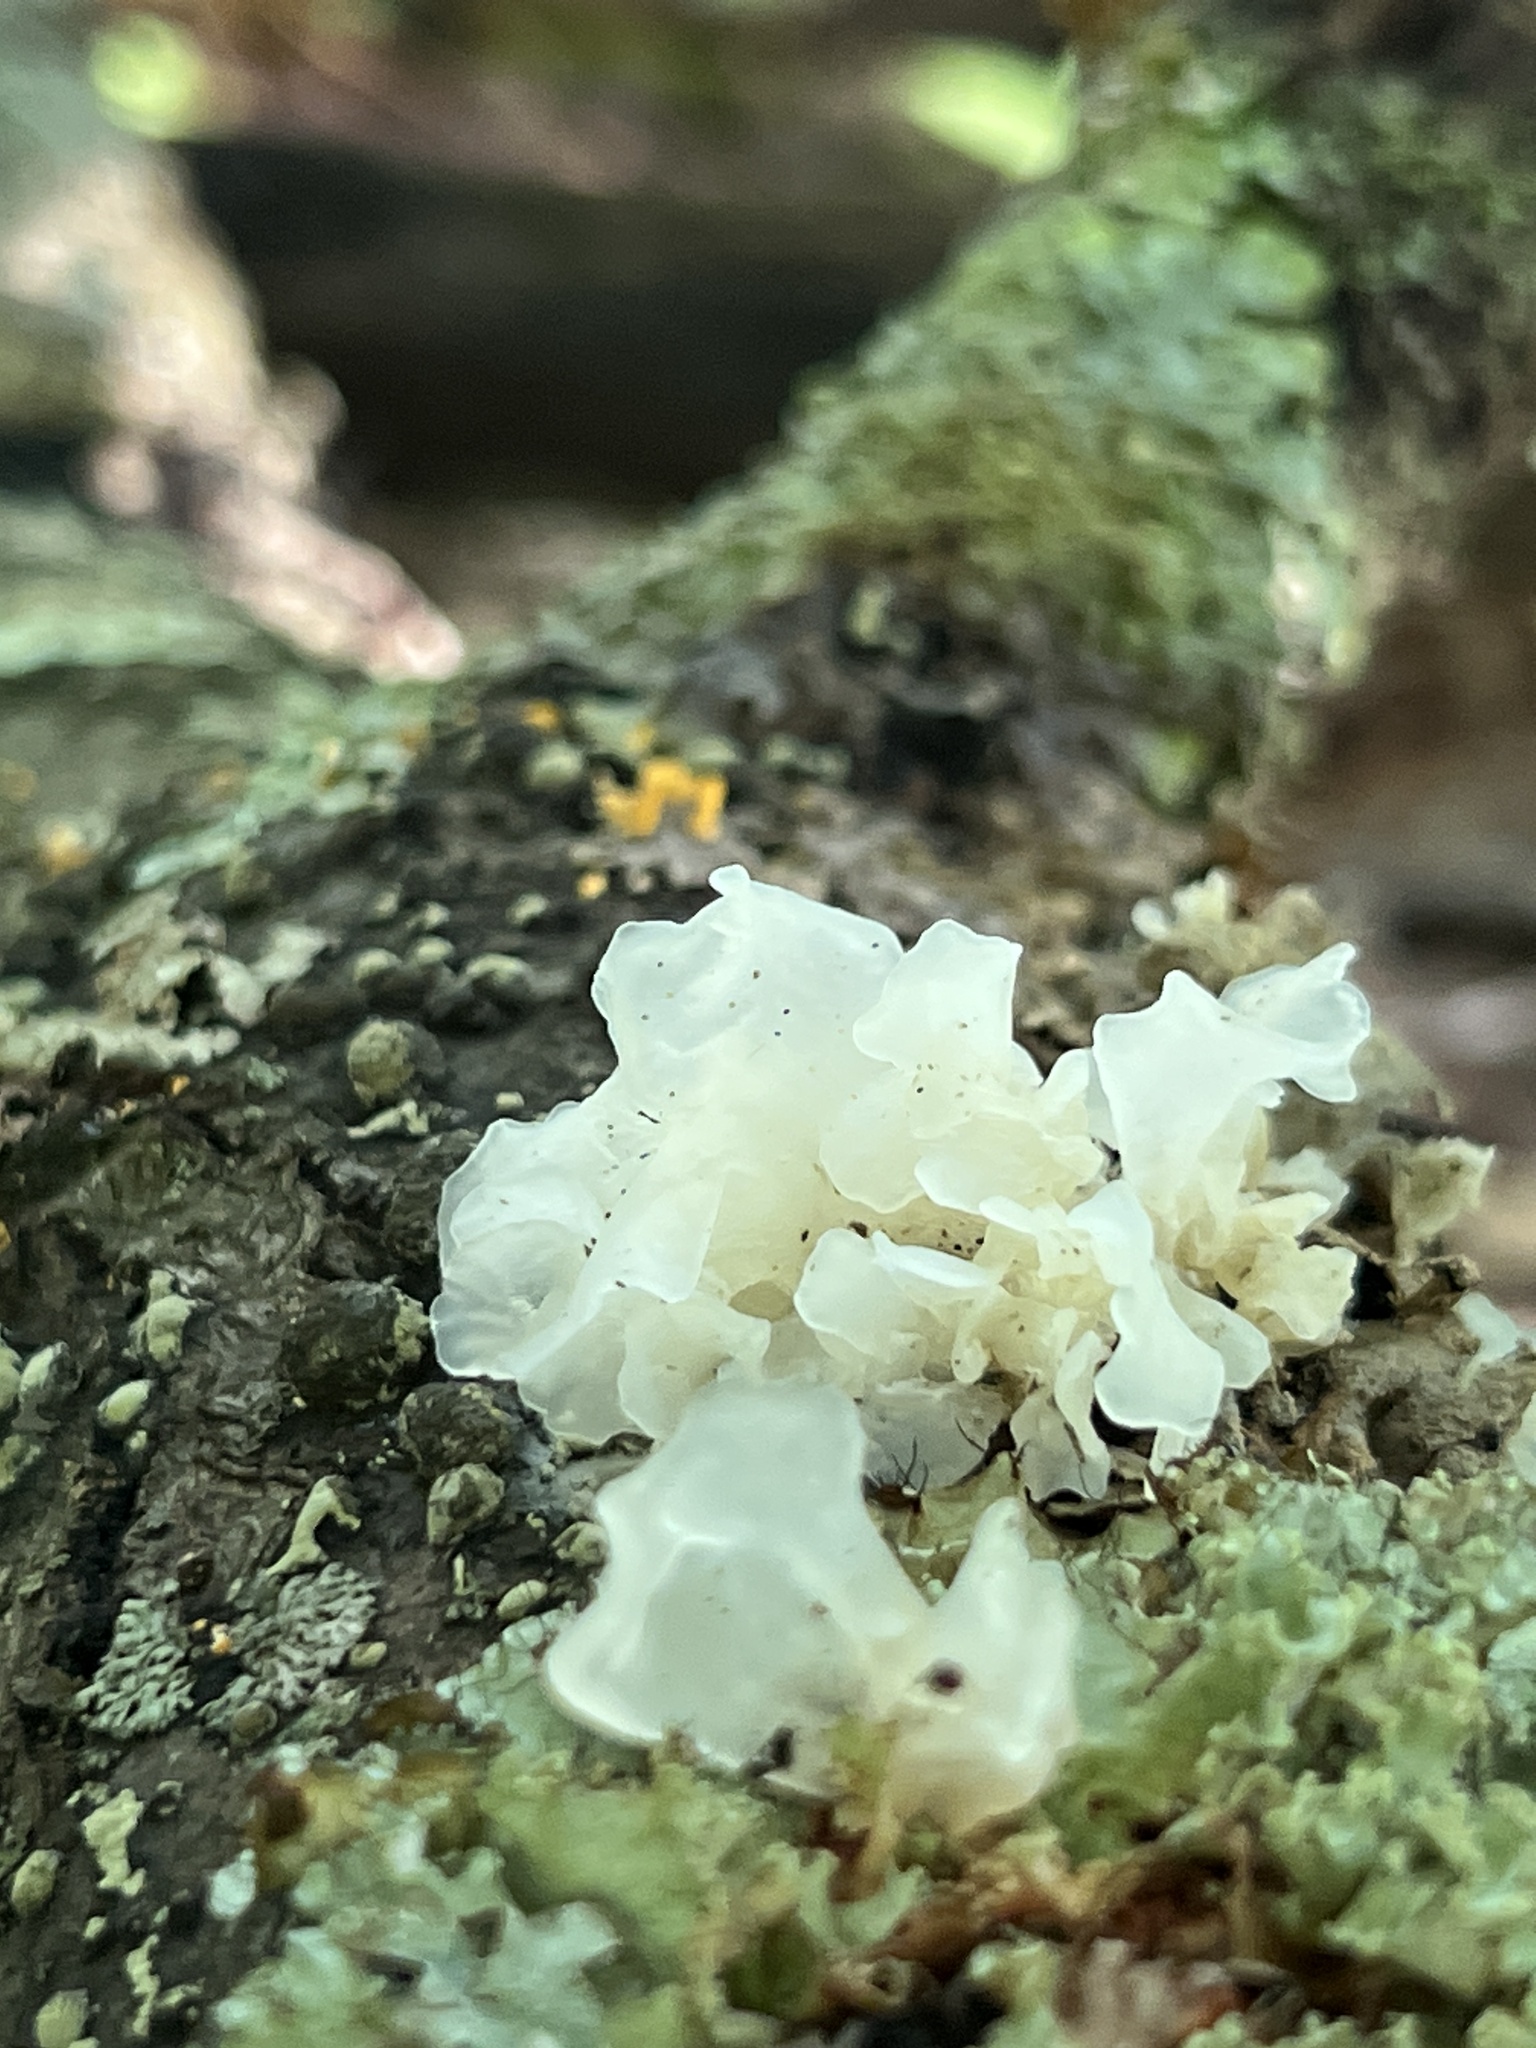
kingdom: Fungi
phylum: Basidiomycota
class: Tremellomycetes
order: Tremellales
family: Tremellaceae
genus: Tremella
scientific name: Tremella fuciformis
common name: Snow fungus
